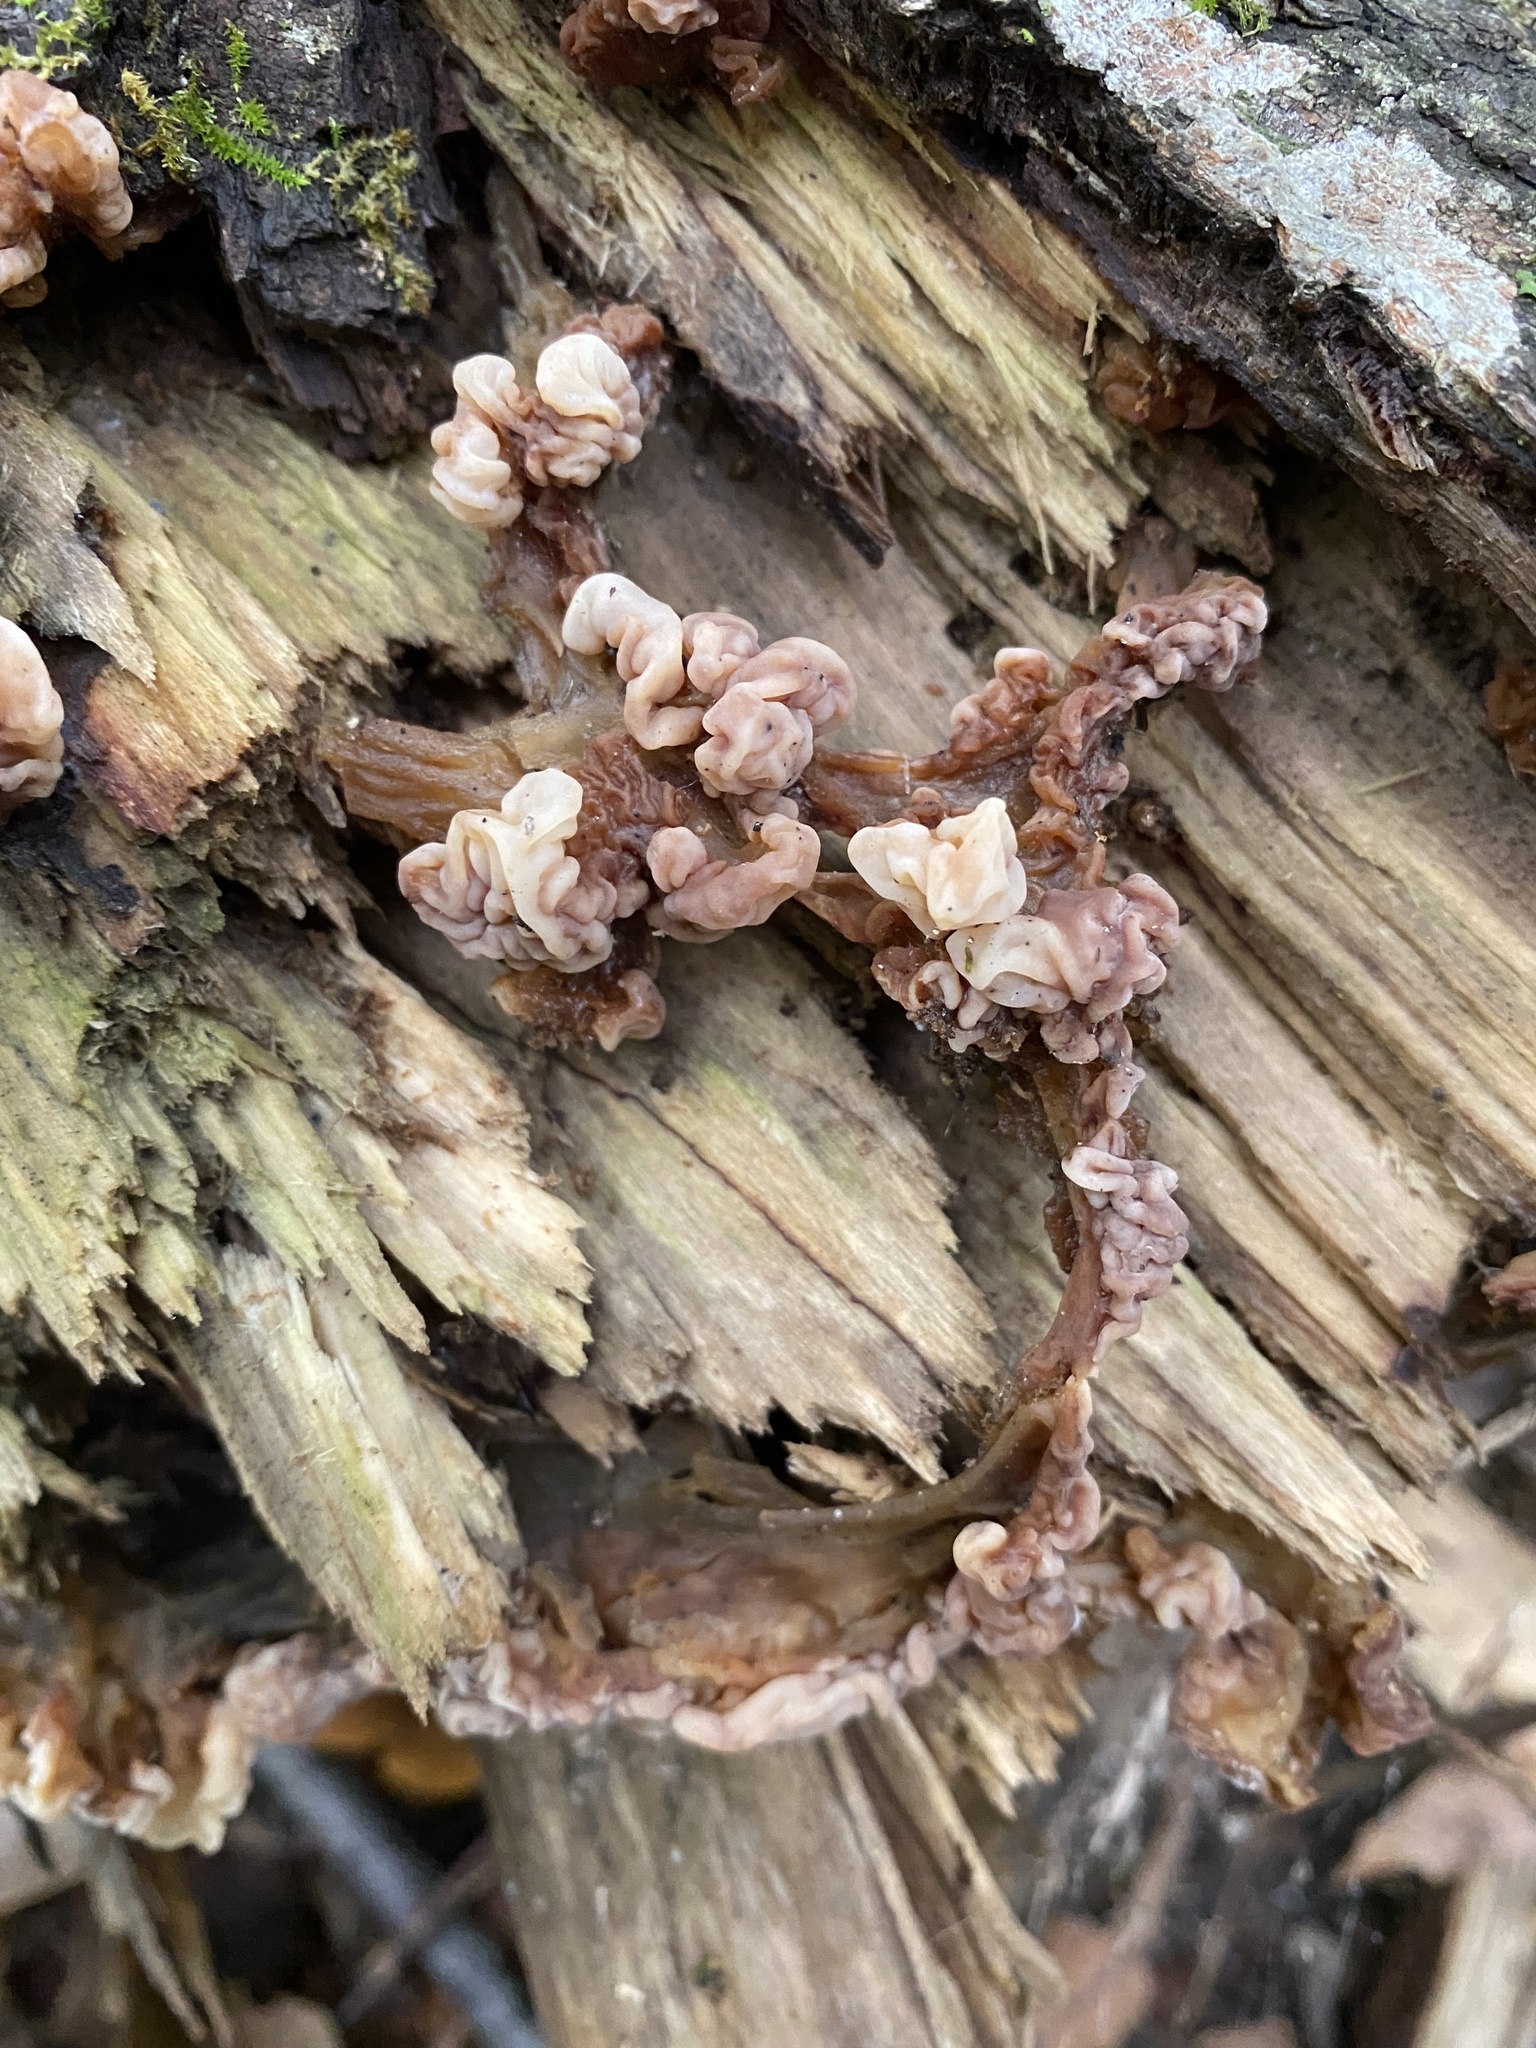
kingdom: Fungi
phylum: Basidiomycota
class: Agaricomycetes
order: Auriculariales
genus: Ductifera
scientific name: Ductifera pululahuana
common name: White jelly fungus
